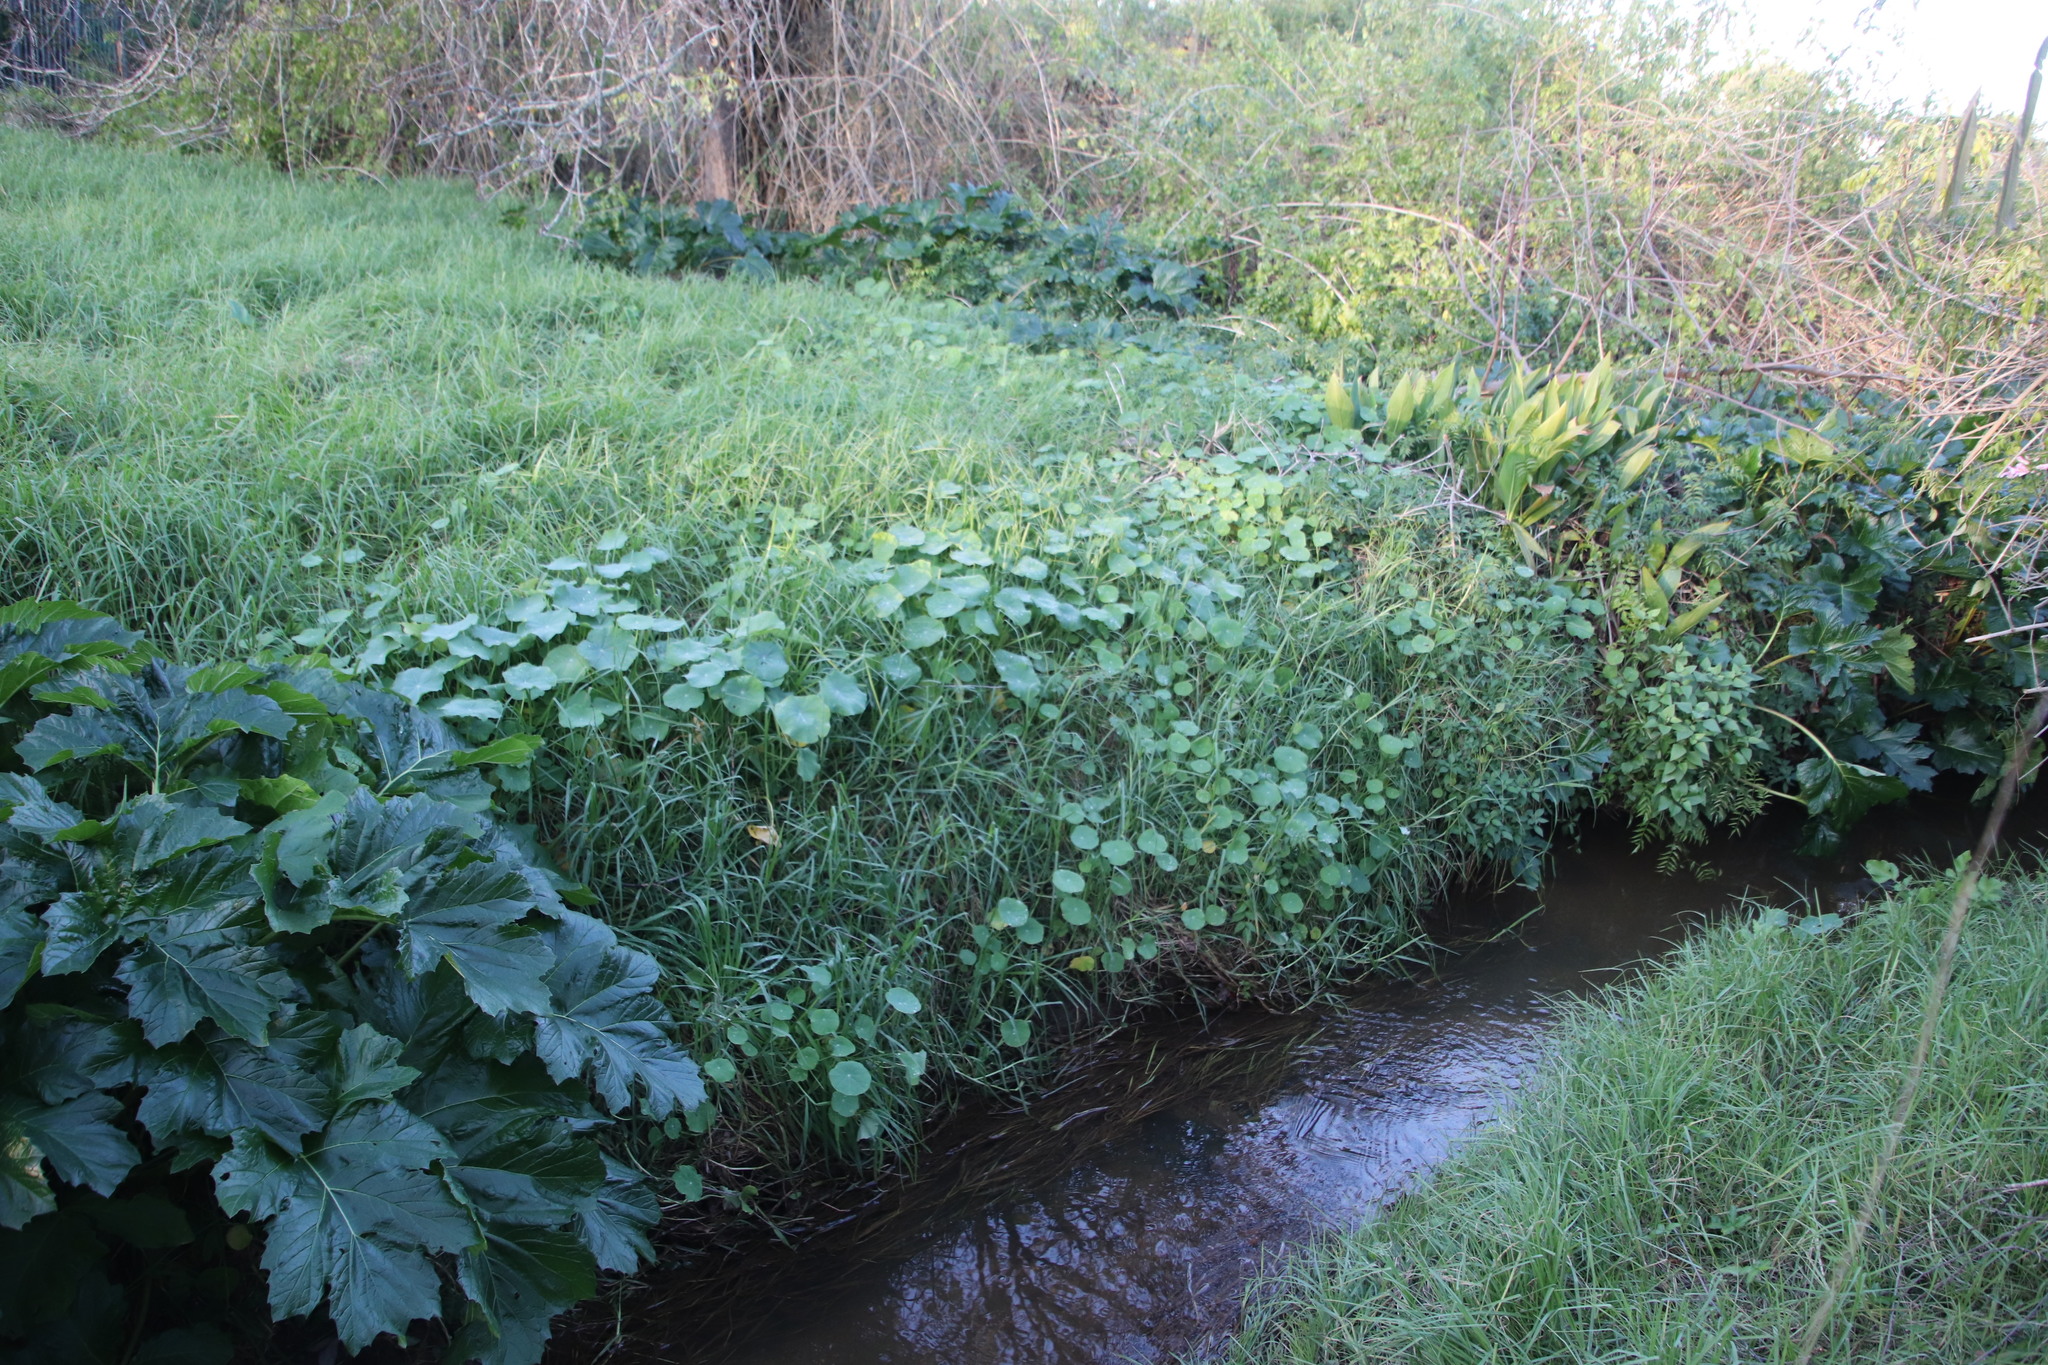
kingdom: Plantae
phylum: Tracheophyta
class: Magnoliopsida
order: Brassicales
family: Tropaeolaceae
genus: Tropaeolum
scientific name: Tropaeolum majus
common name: Nasturtium
